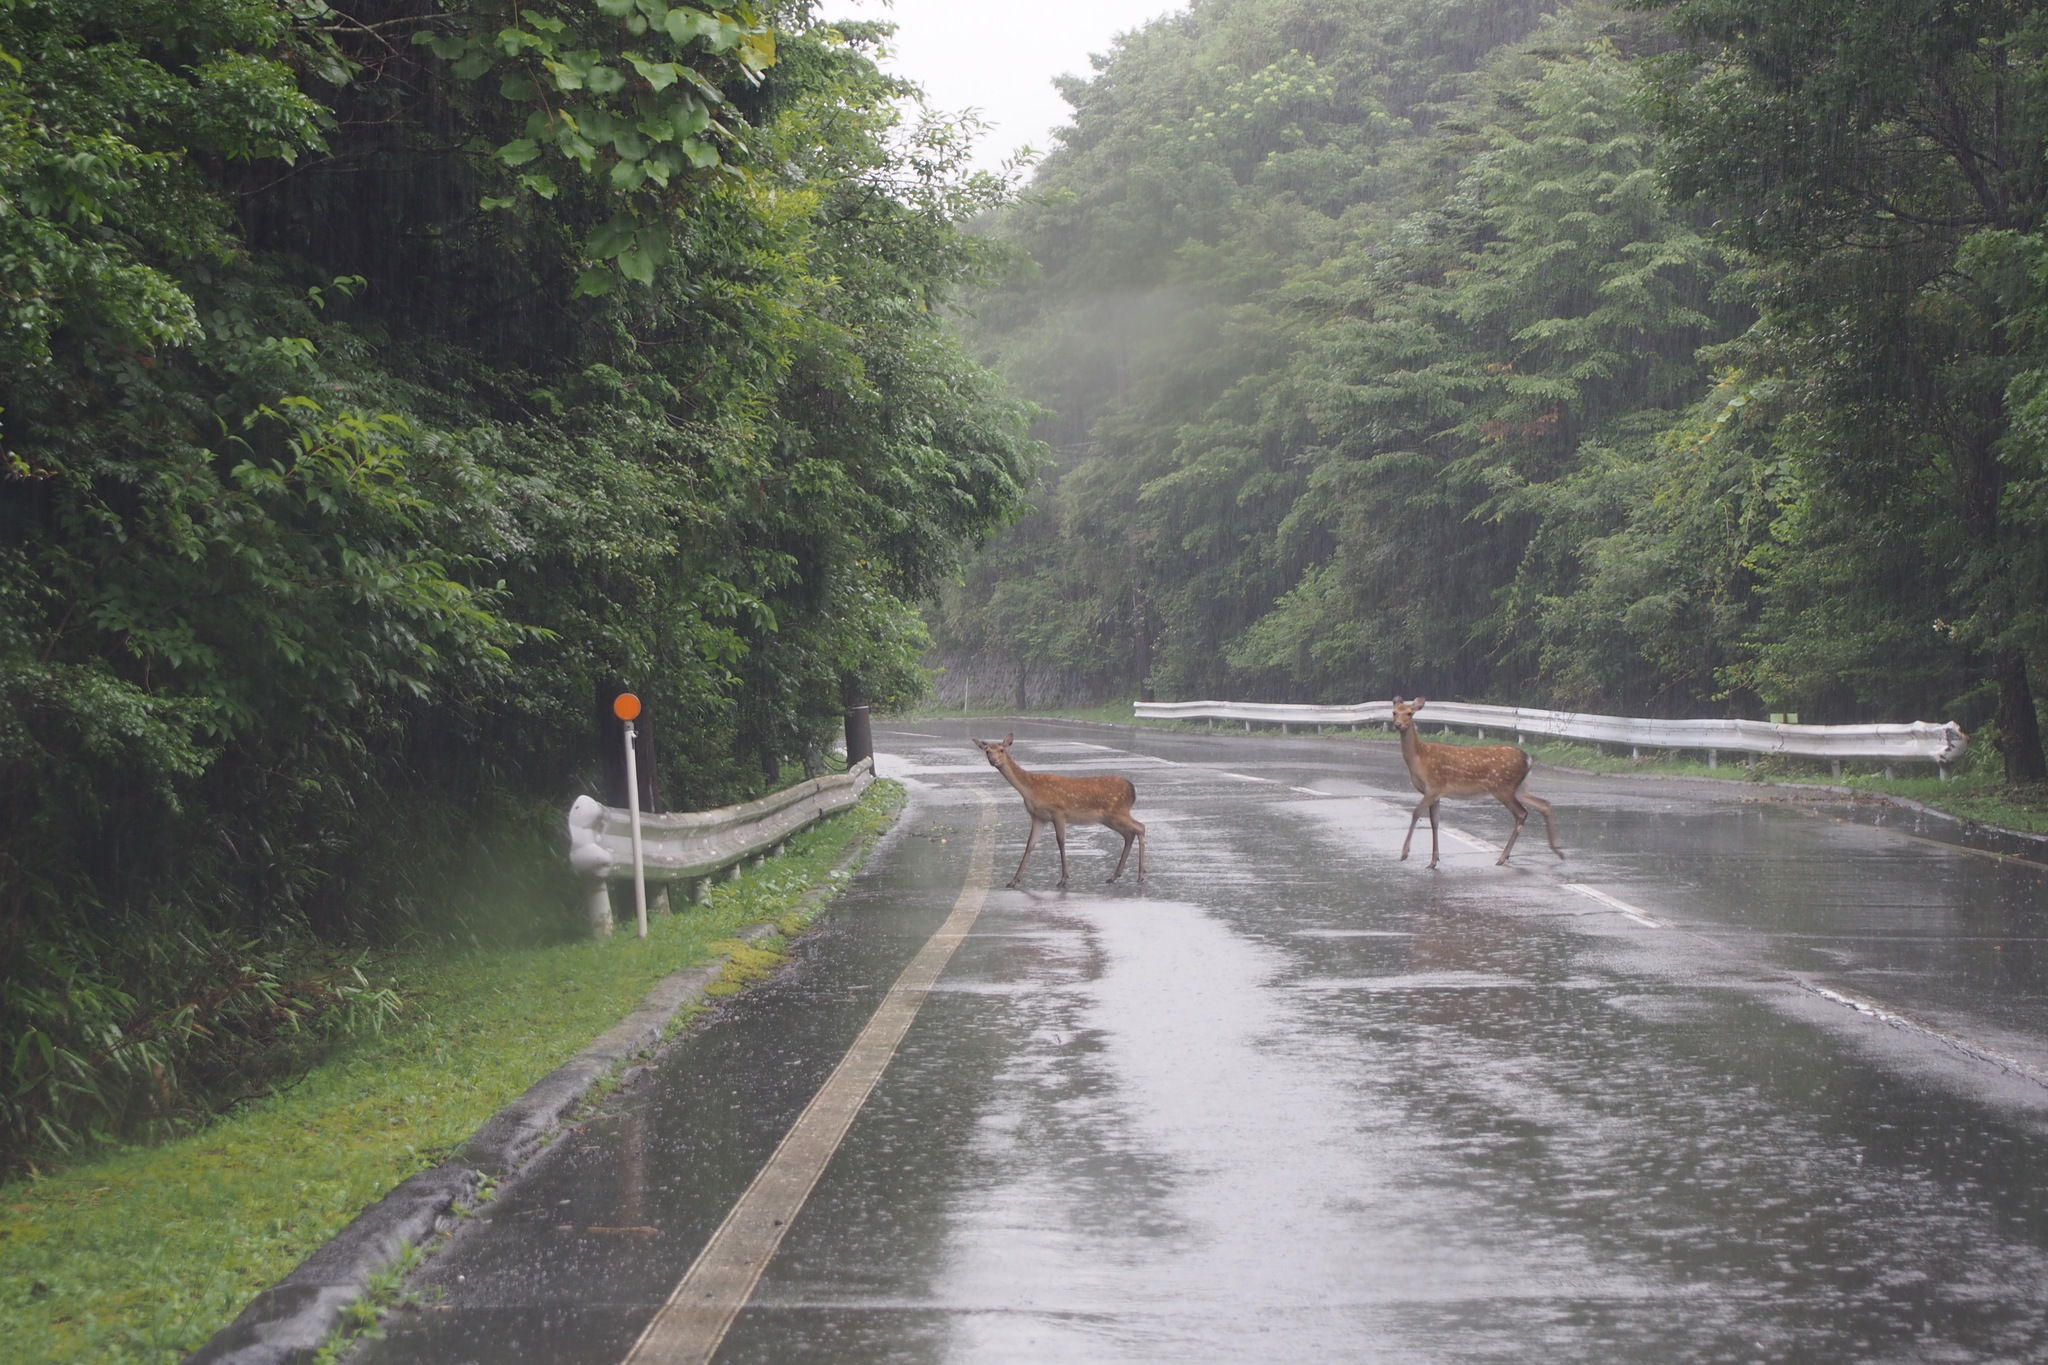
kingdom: Animalia
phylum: Chordata
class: Mammalia
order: Artiodactyla
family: Cervidae
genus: Cervus
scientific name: Cervus nippon
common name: Sika deer
